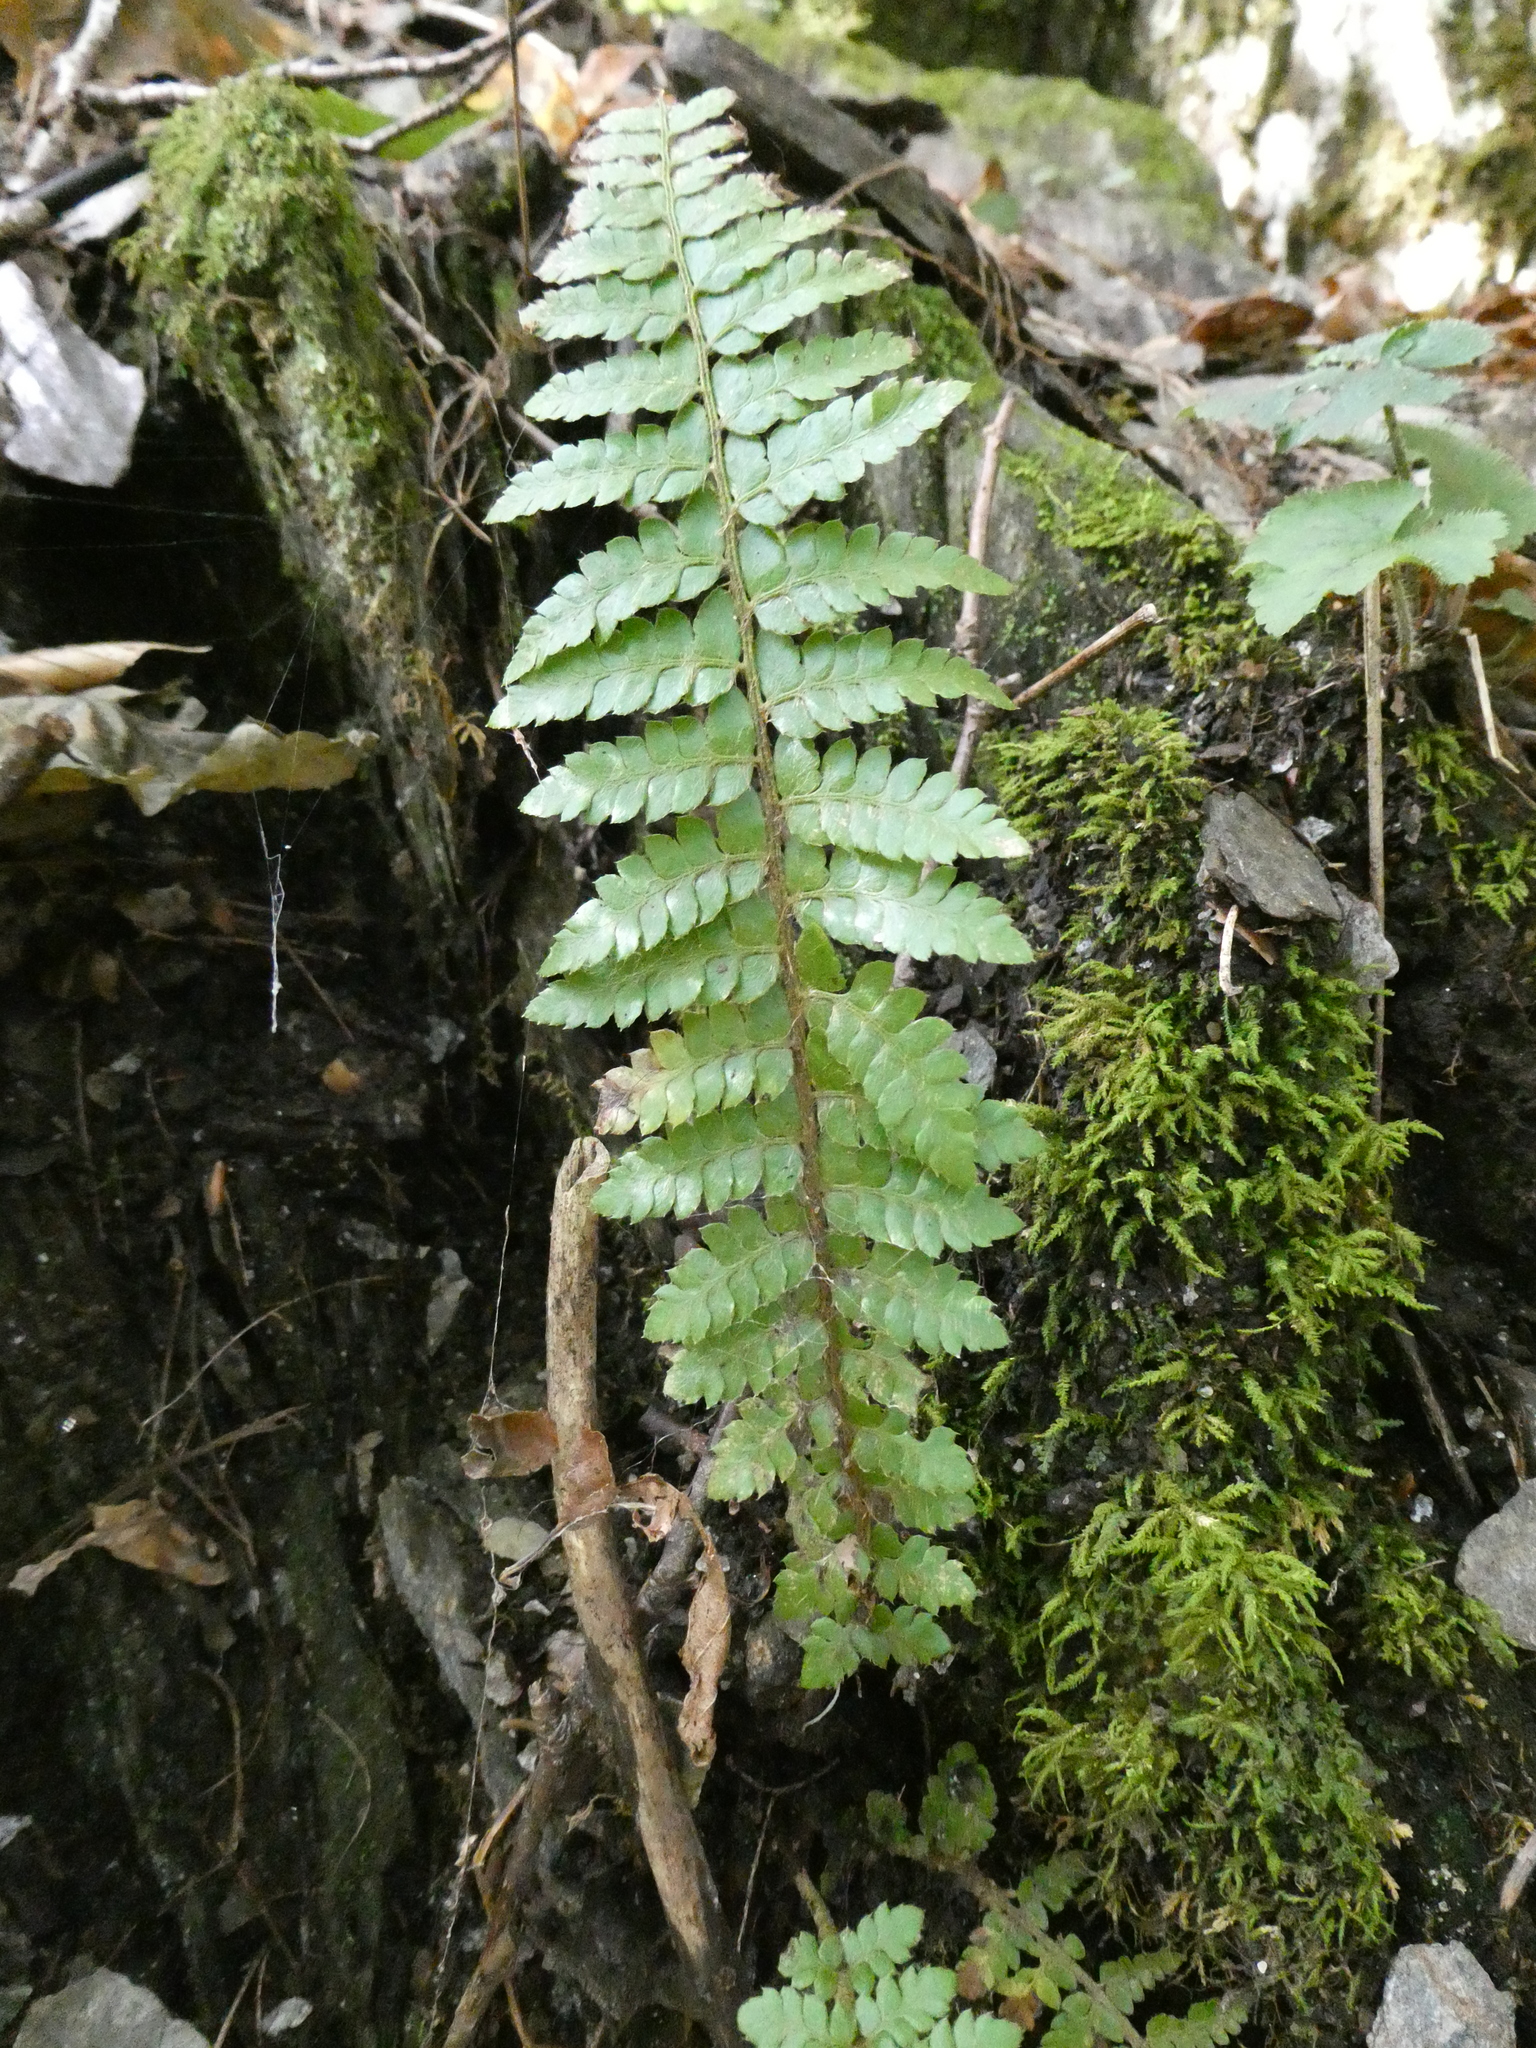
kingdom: Plantae
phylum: Tracheophyta
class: Polypodiopsida
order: Polypodiales
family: Dryopteridaceae
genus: Polystichum
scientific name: Polystichum braunii
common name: Braun's holly fern
